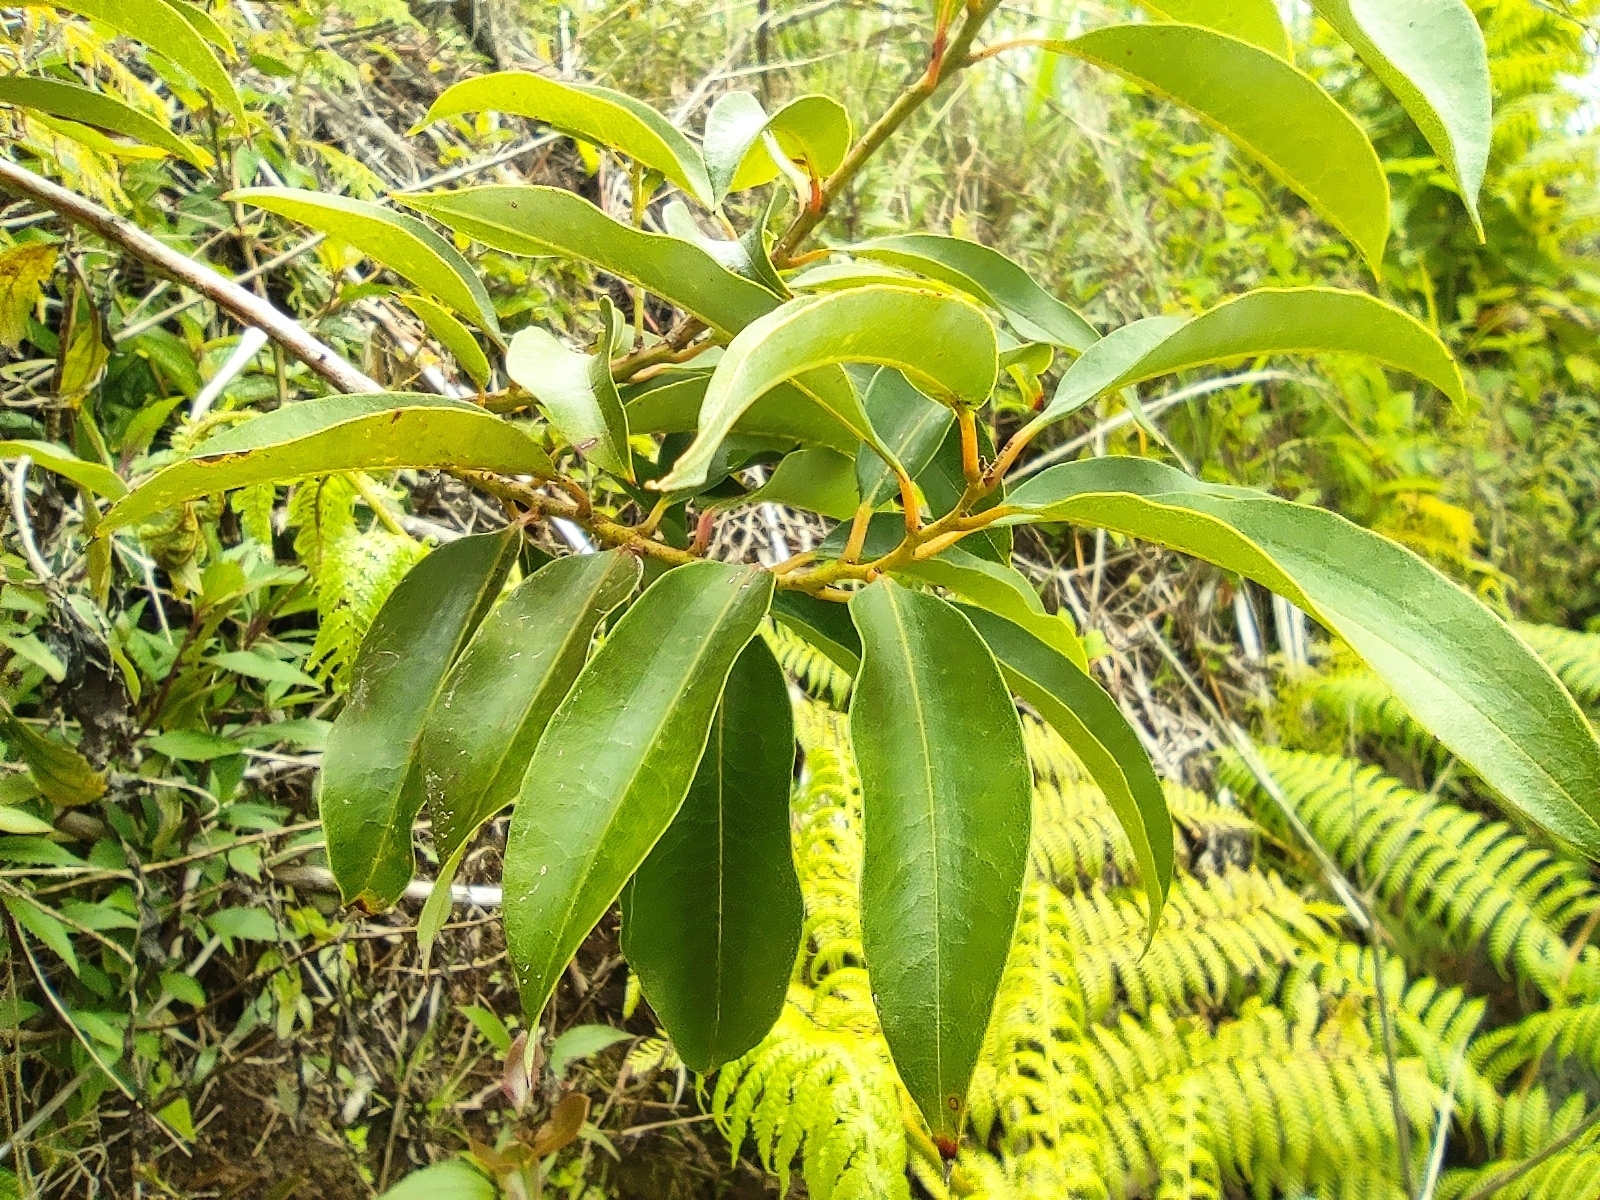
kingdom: Plantae
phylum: Tracheophyta
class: Magnoliopsida
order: Ericales
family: Ericaceae
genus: Agarista
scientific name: Agarista salicifolia
